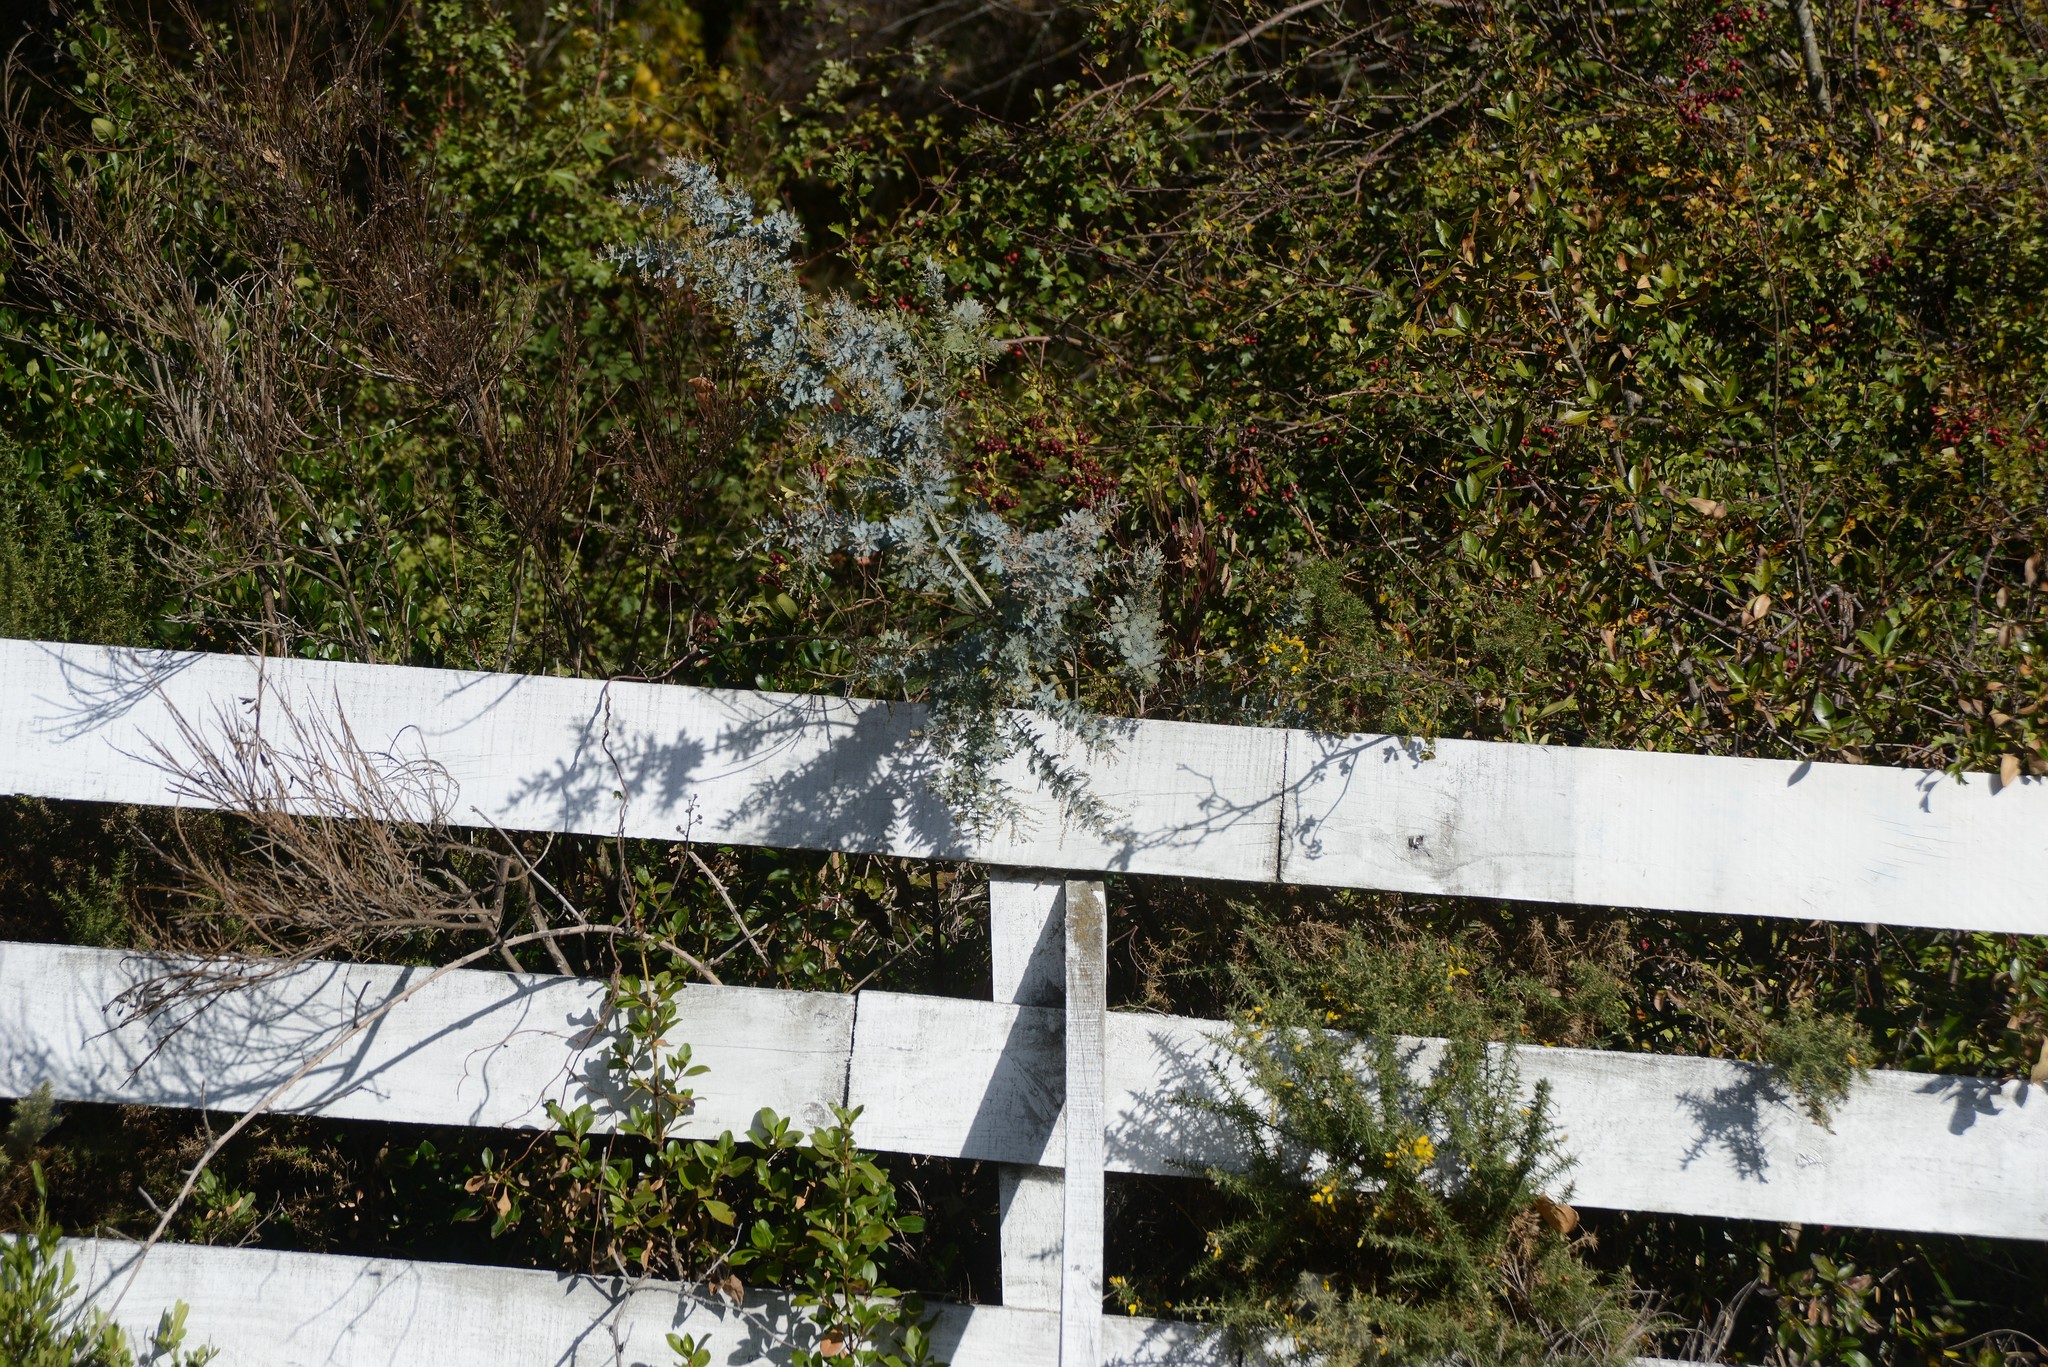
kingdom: Plantae
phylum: Tracheophyta
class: Magnoliopsida
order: Fabales
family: Fabaceae
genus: Acacia
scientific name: Acacia baileyana
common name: Cootamundra wattle
